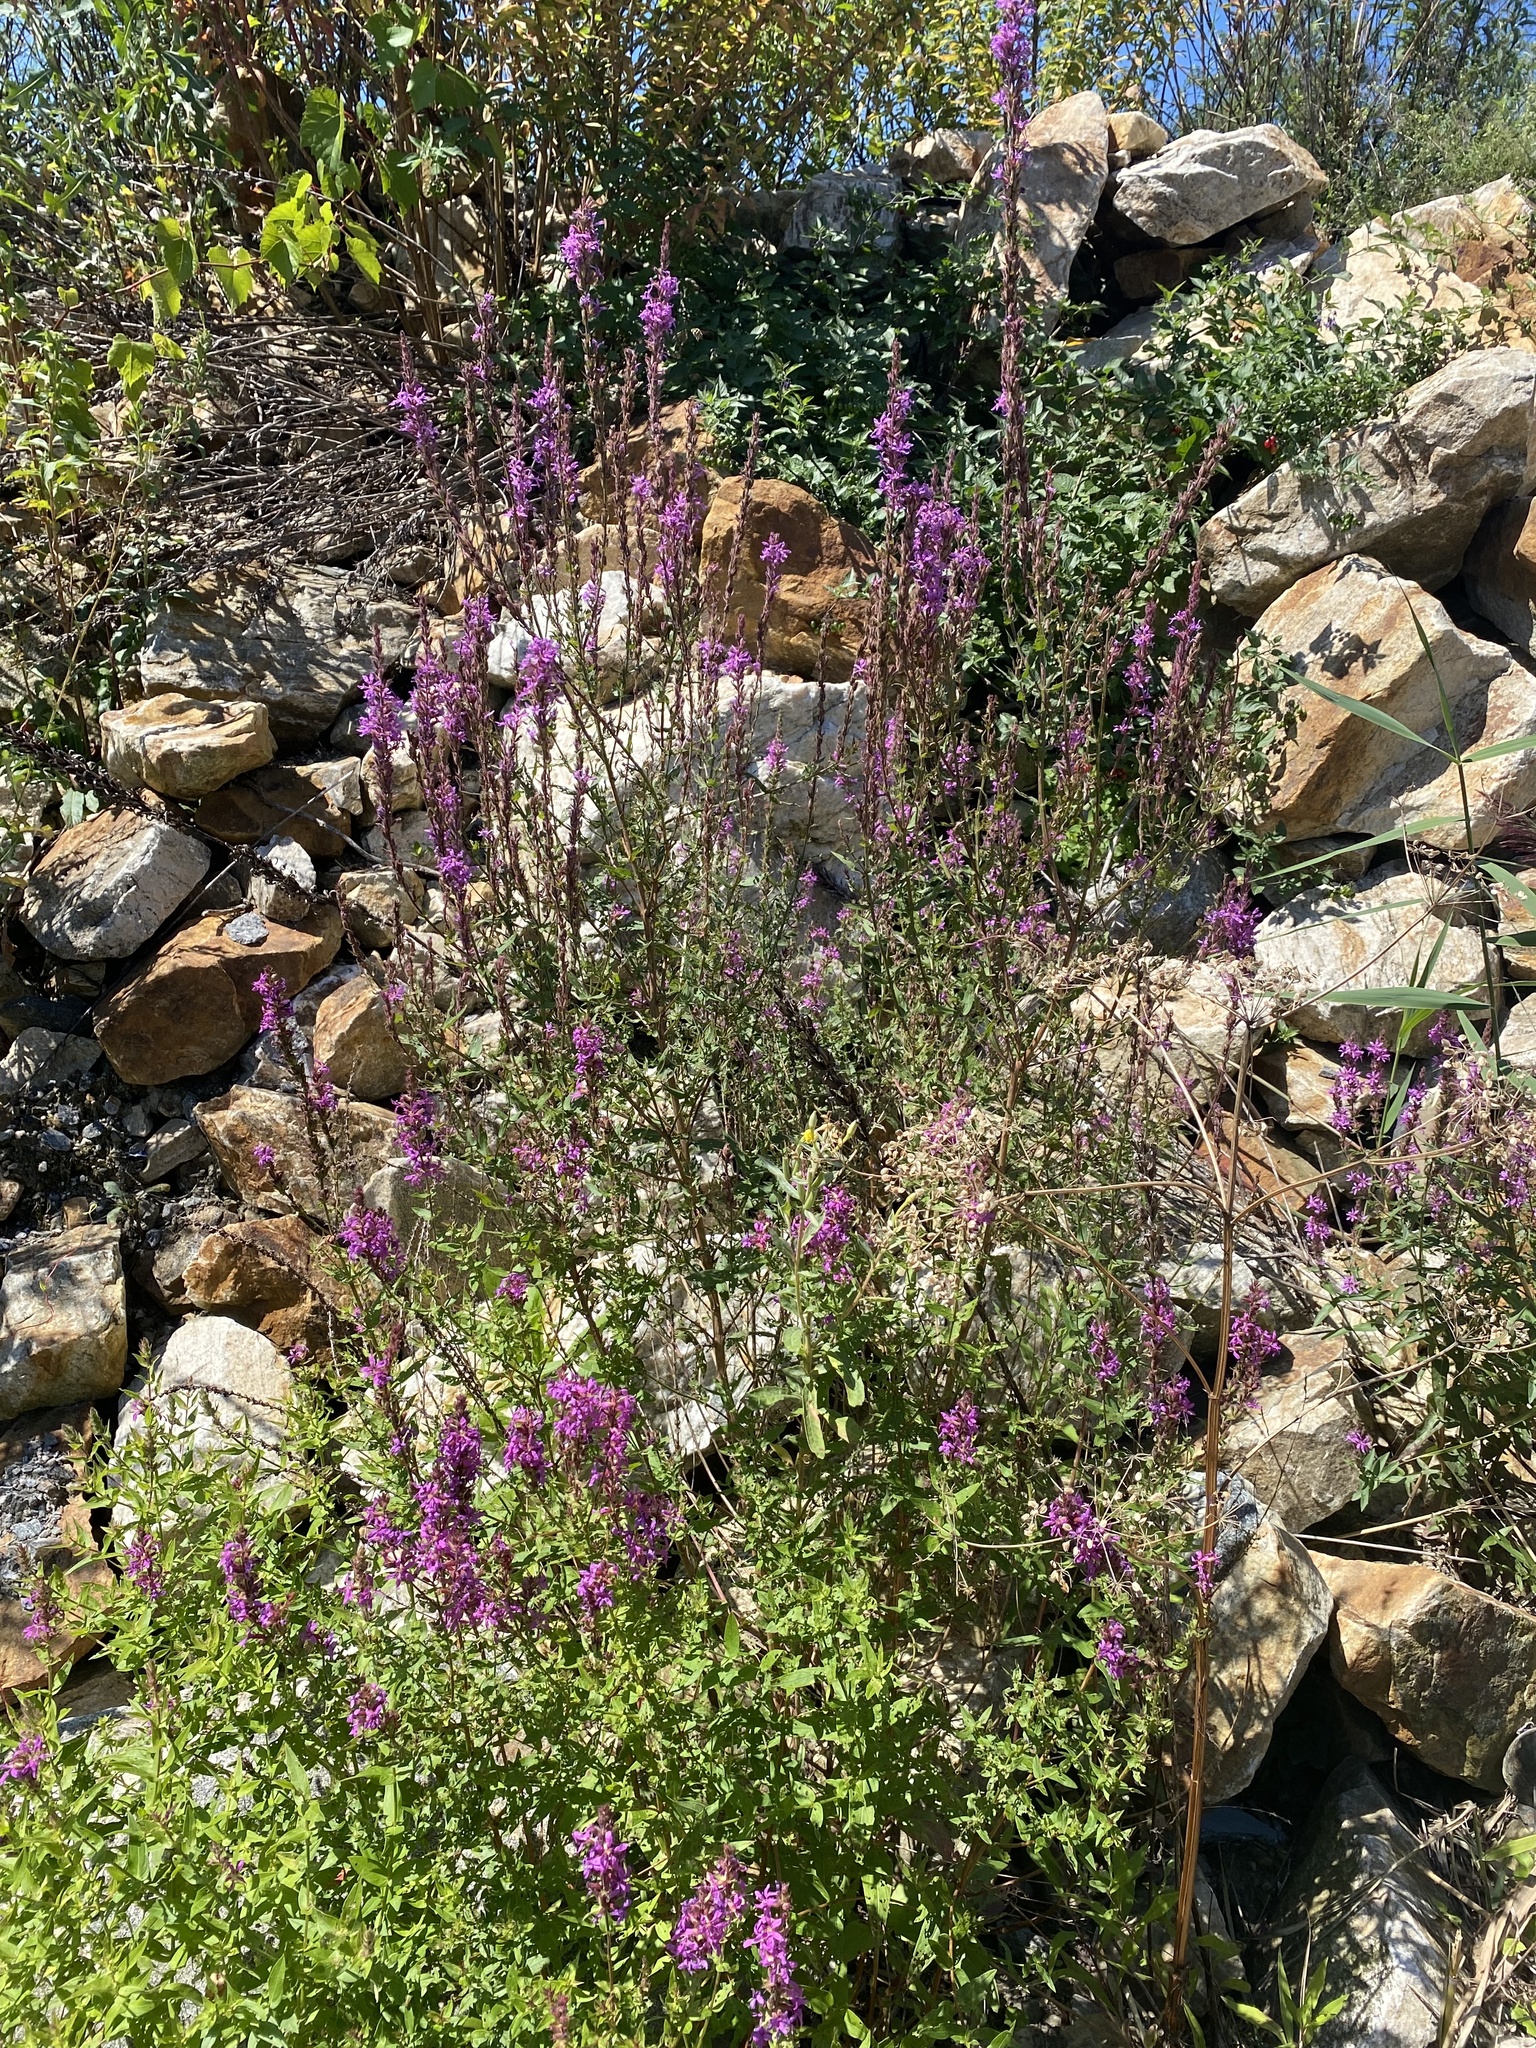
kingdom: Plantae
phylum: Tracheophyta
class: Magnoliopsida
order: Myrtales
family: Lythraceae
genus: Lythrum
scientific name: Lythrum salicaria
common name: Purple loosestrife
